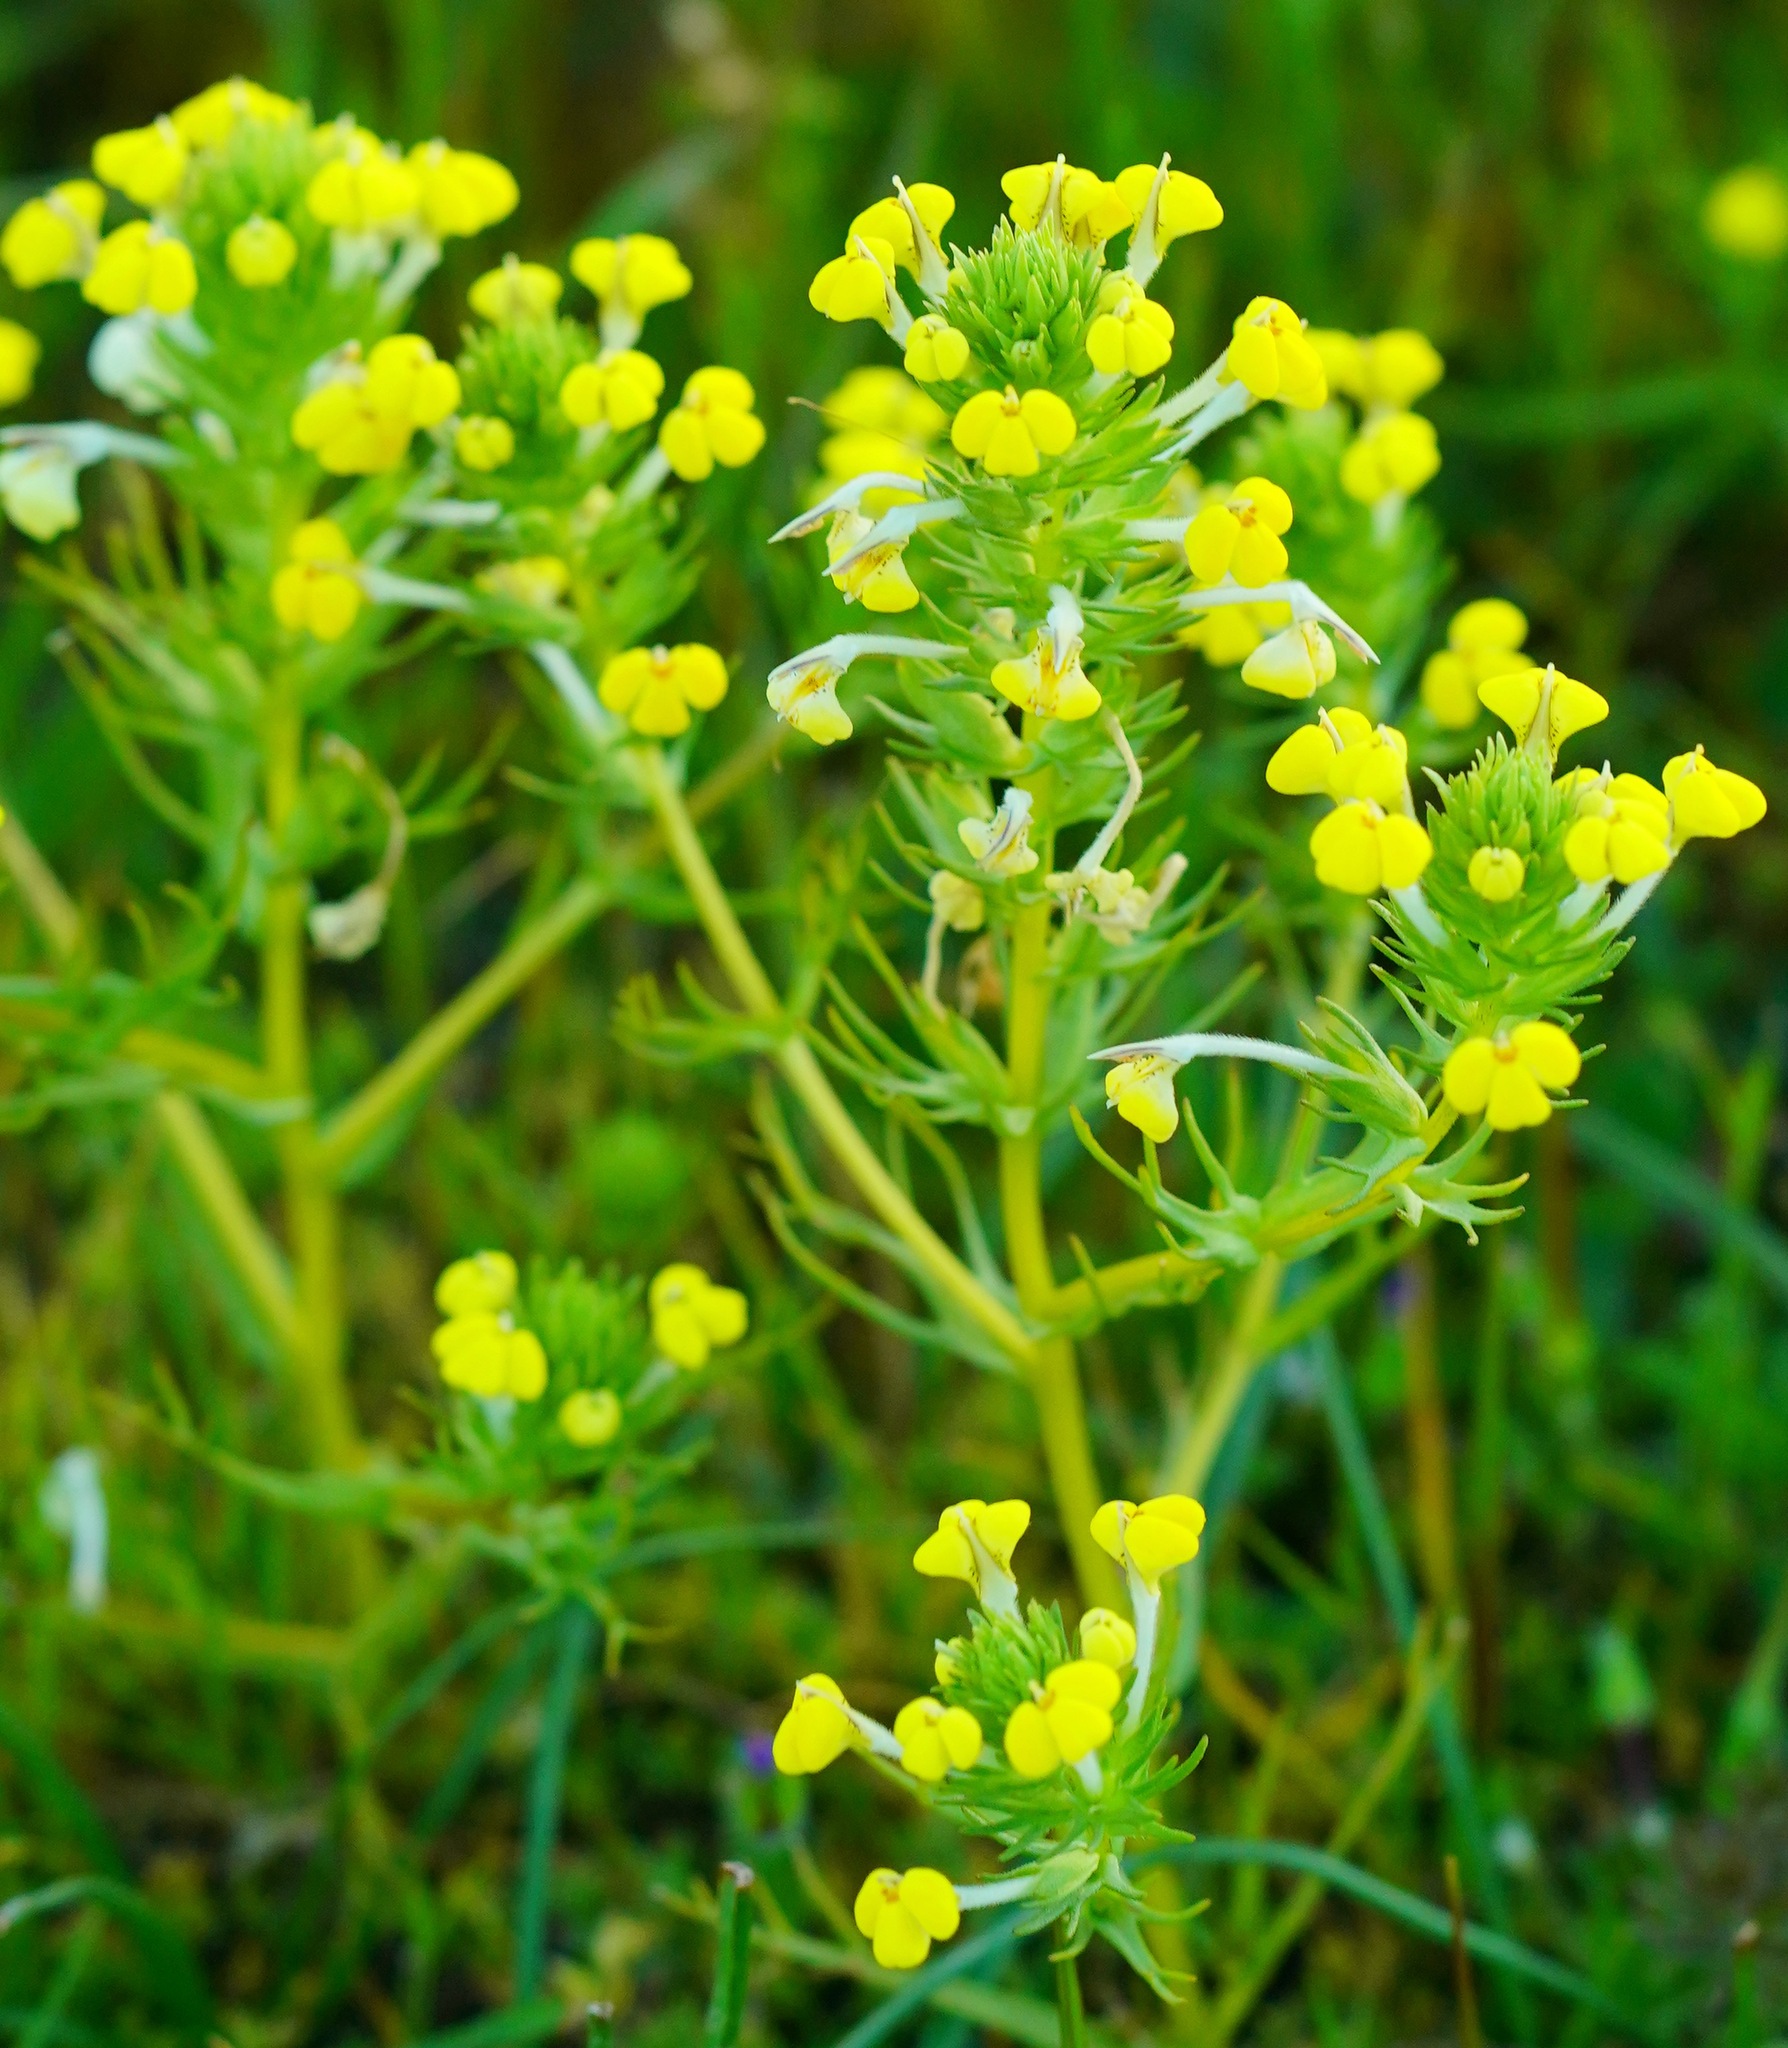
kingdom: Plantae
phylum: Tracheophyta
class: Magnoliopsida
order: Lamiales
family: Orobanchaceae
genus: Triphysaria
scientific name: Triphysaria versicolor
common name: Bearded false owl-clover
